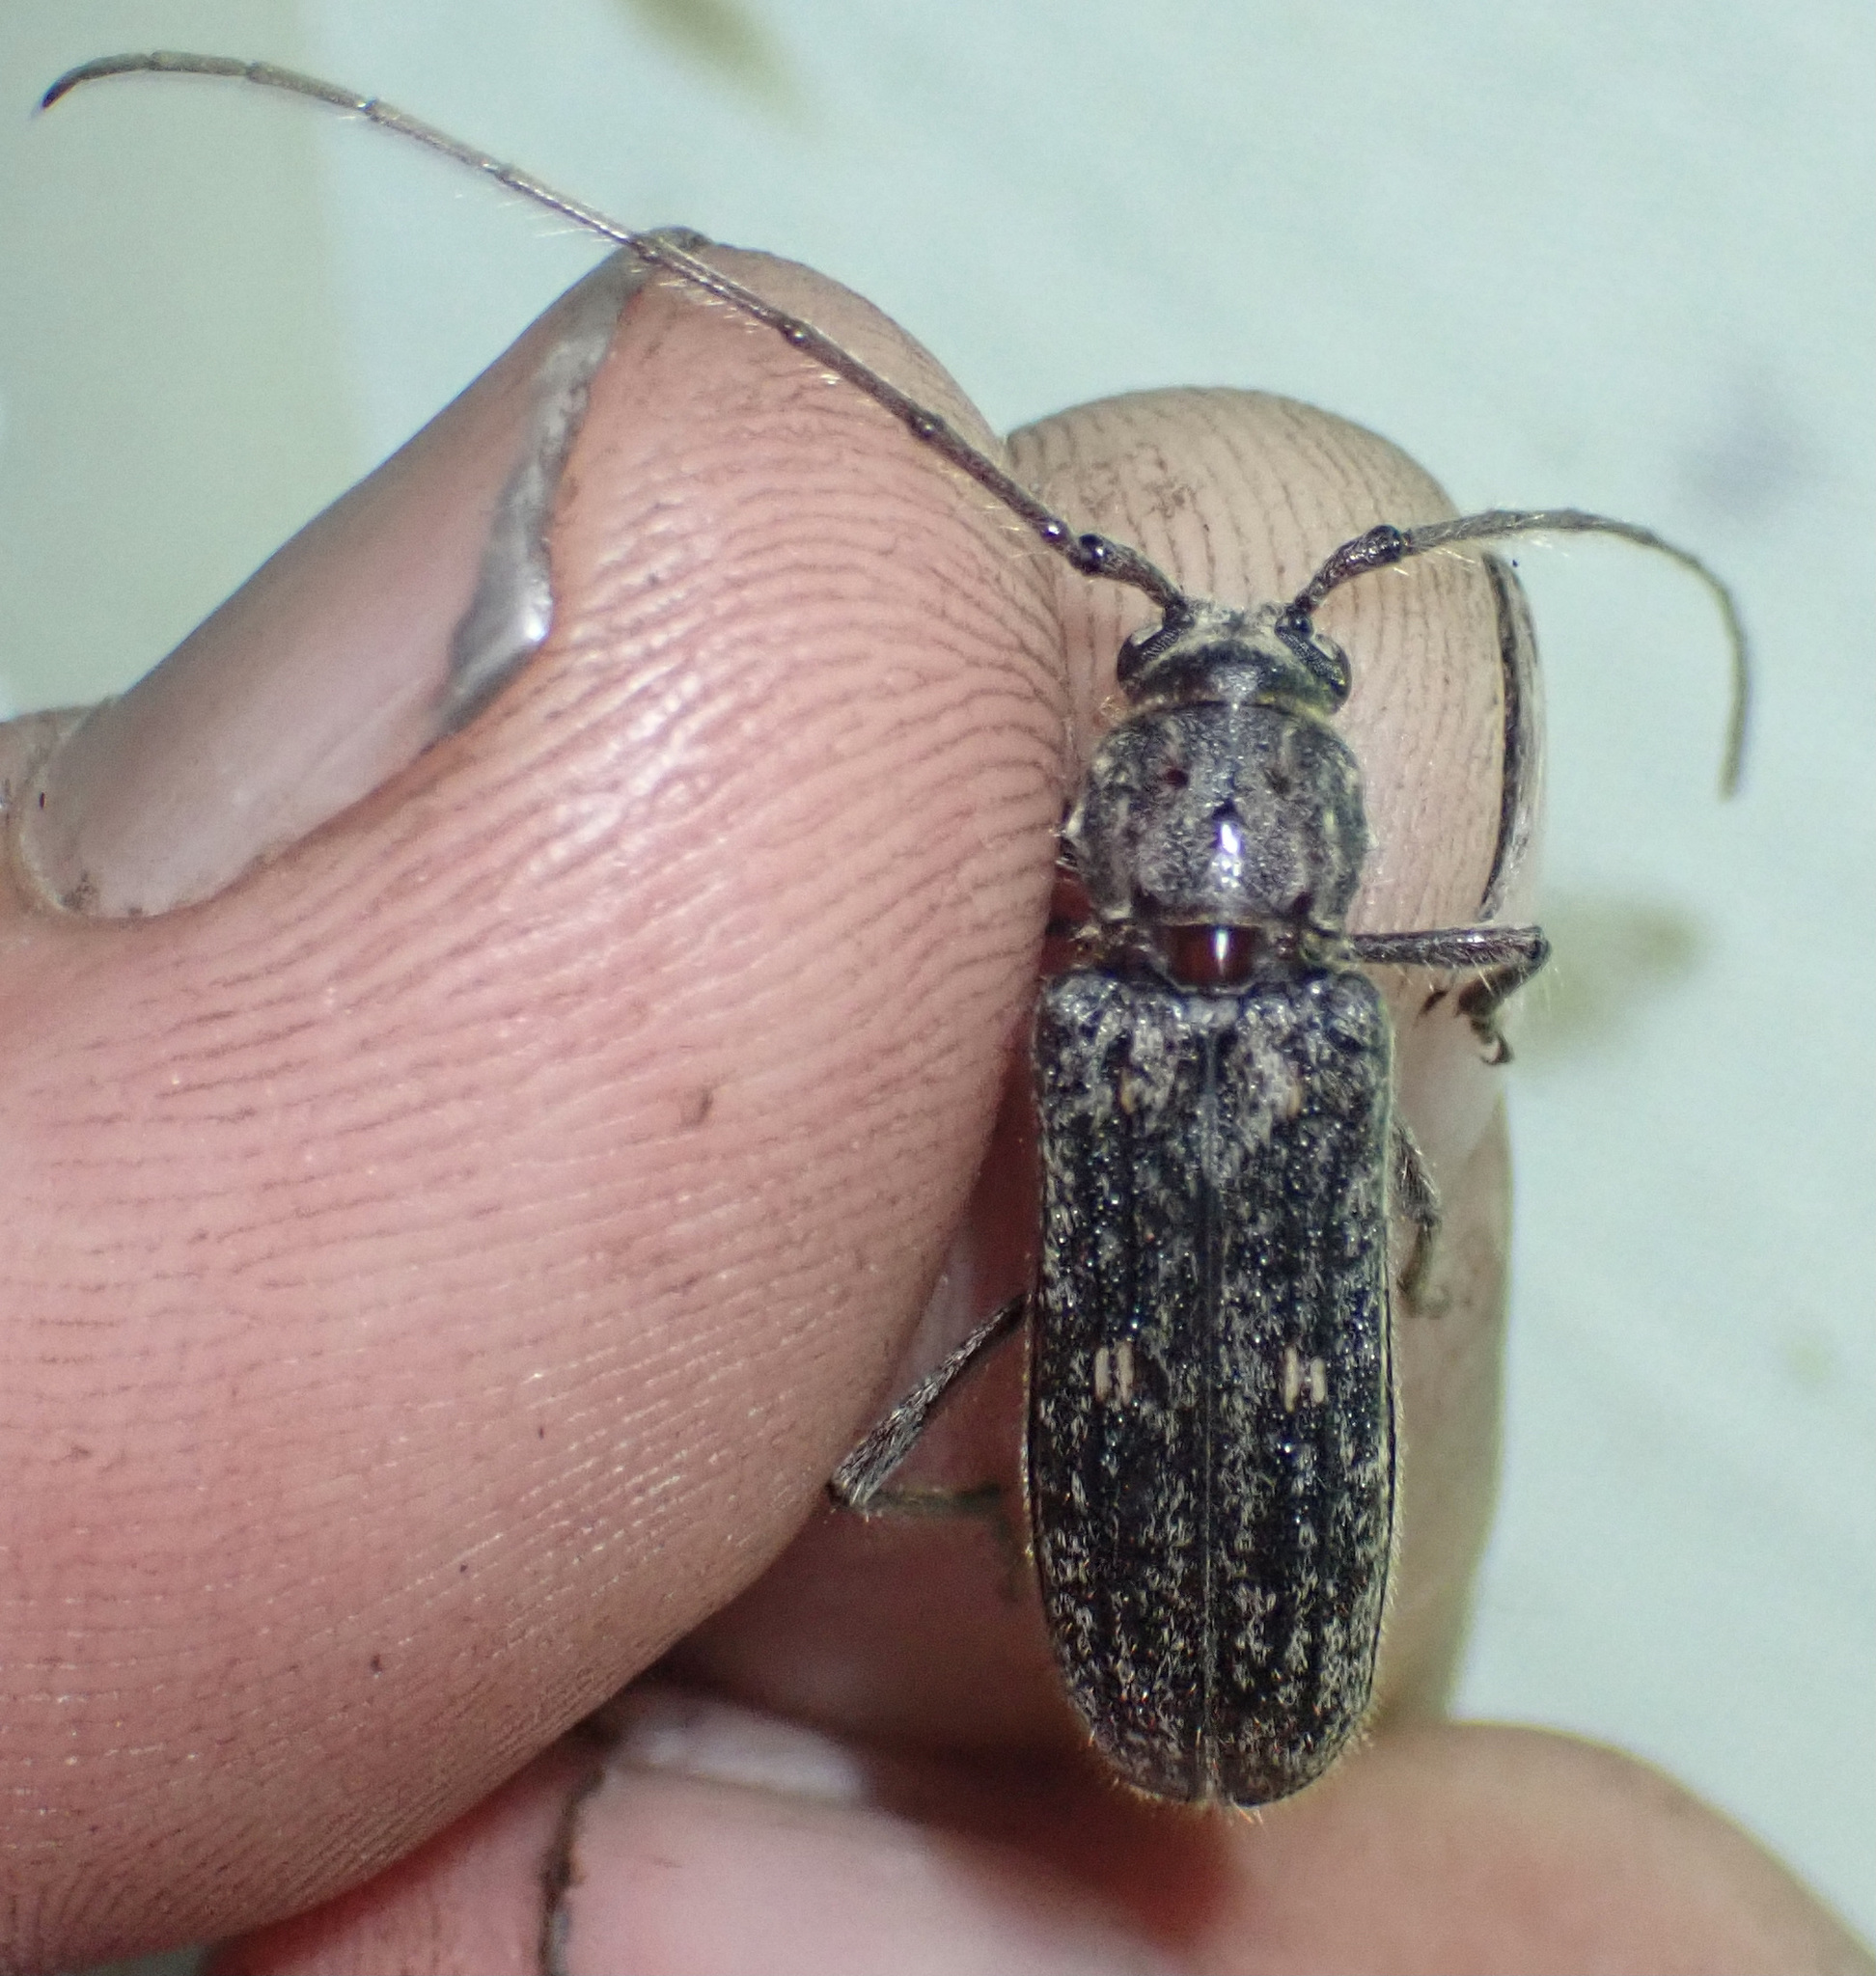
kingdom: Animalia
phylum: Arthropoda
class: Insecta
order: Coleoptera
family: Cerambycidae
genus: Zoodes
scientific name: Zoodes liturifer
